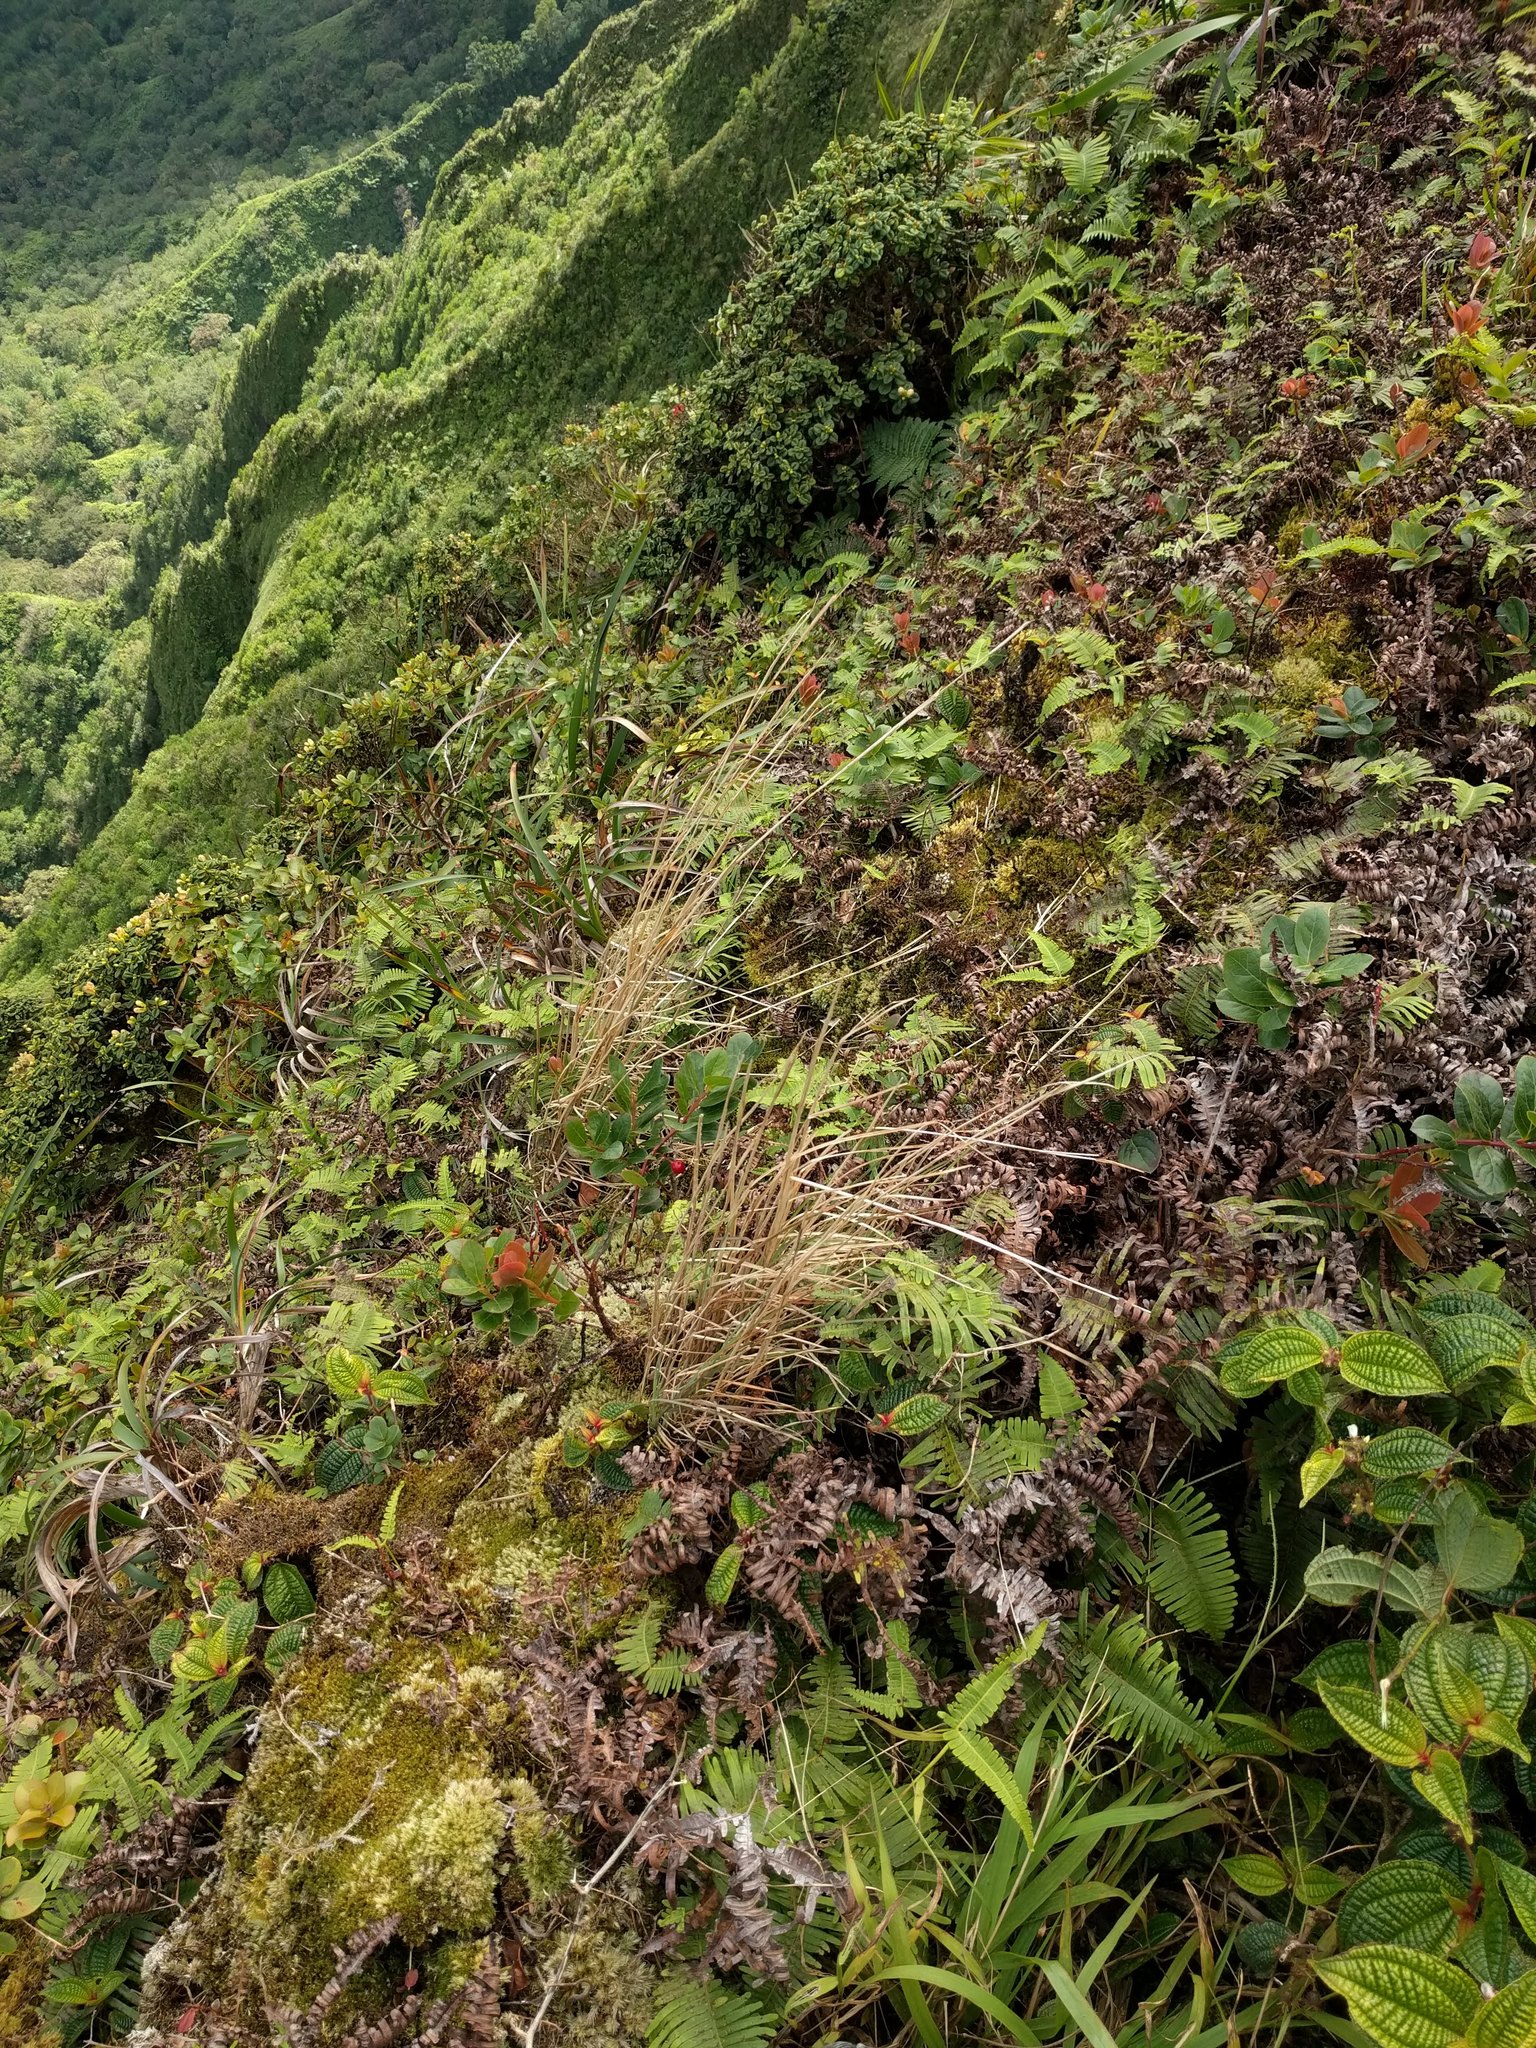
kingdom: Plantae
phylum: Tracheophyta
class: Liliopsida
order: Poales
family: Poaceae
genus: Andropogon
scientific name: Andropogon virginicus
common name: Broomsedge bluestem
